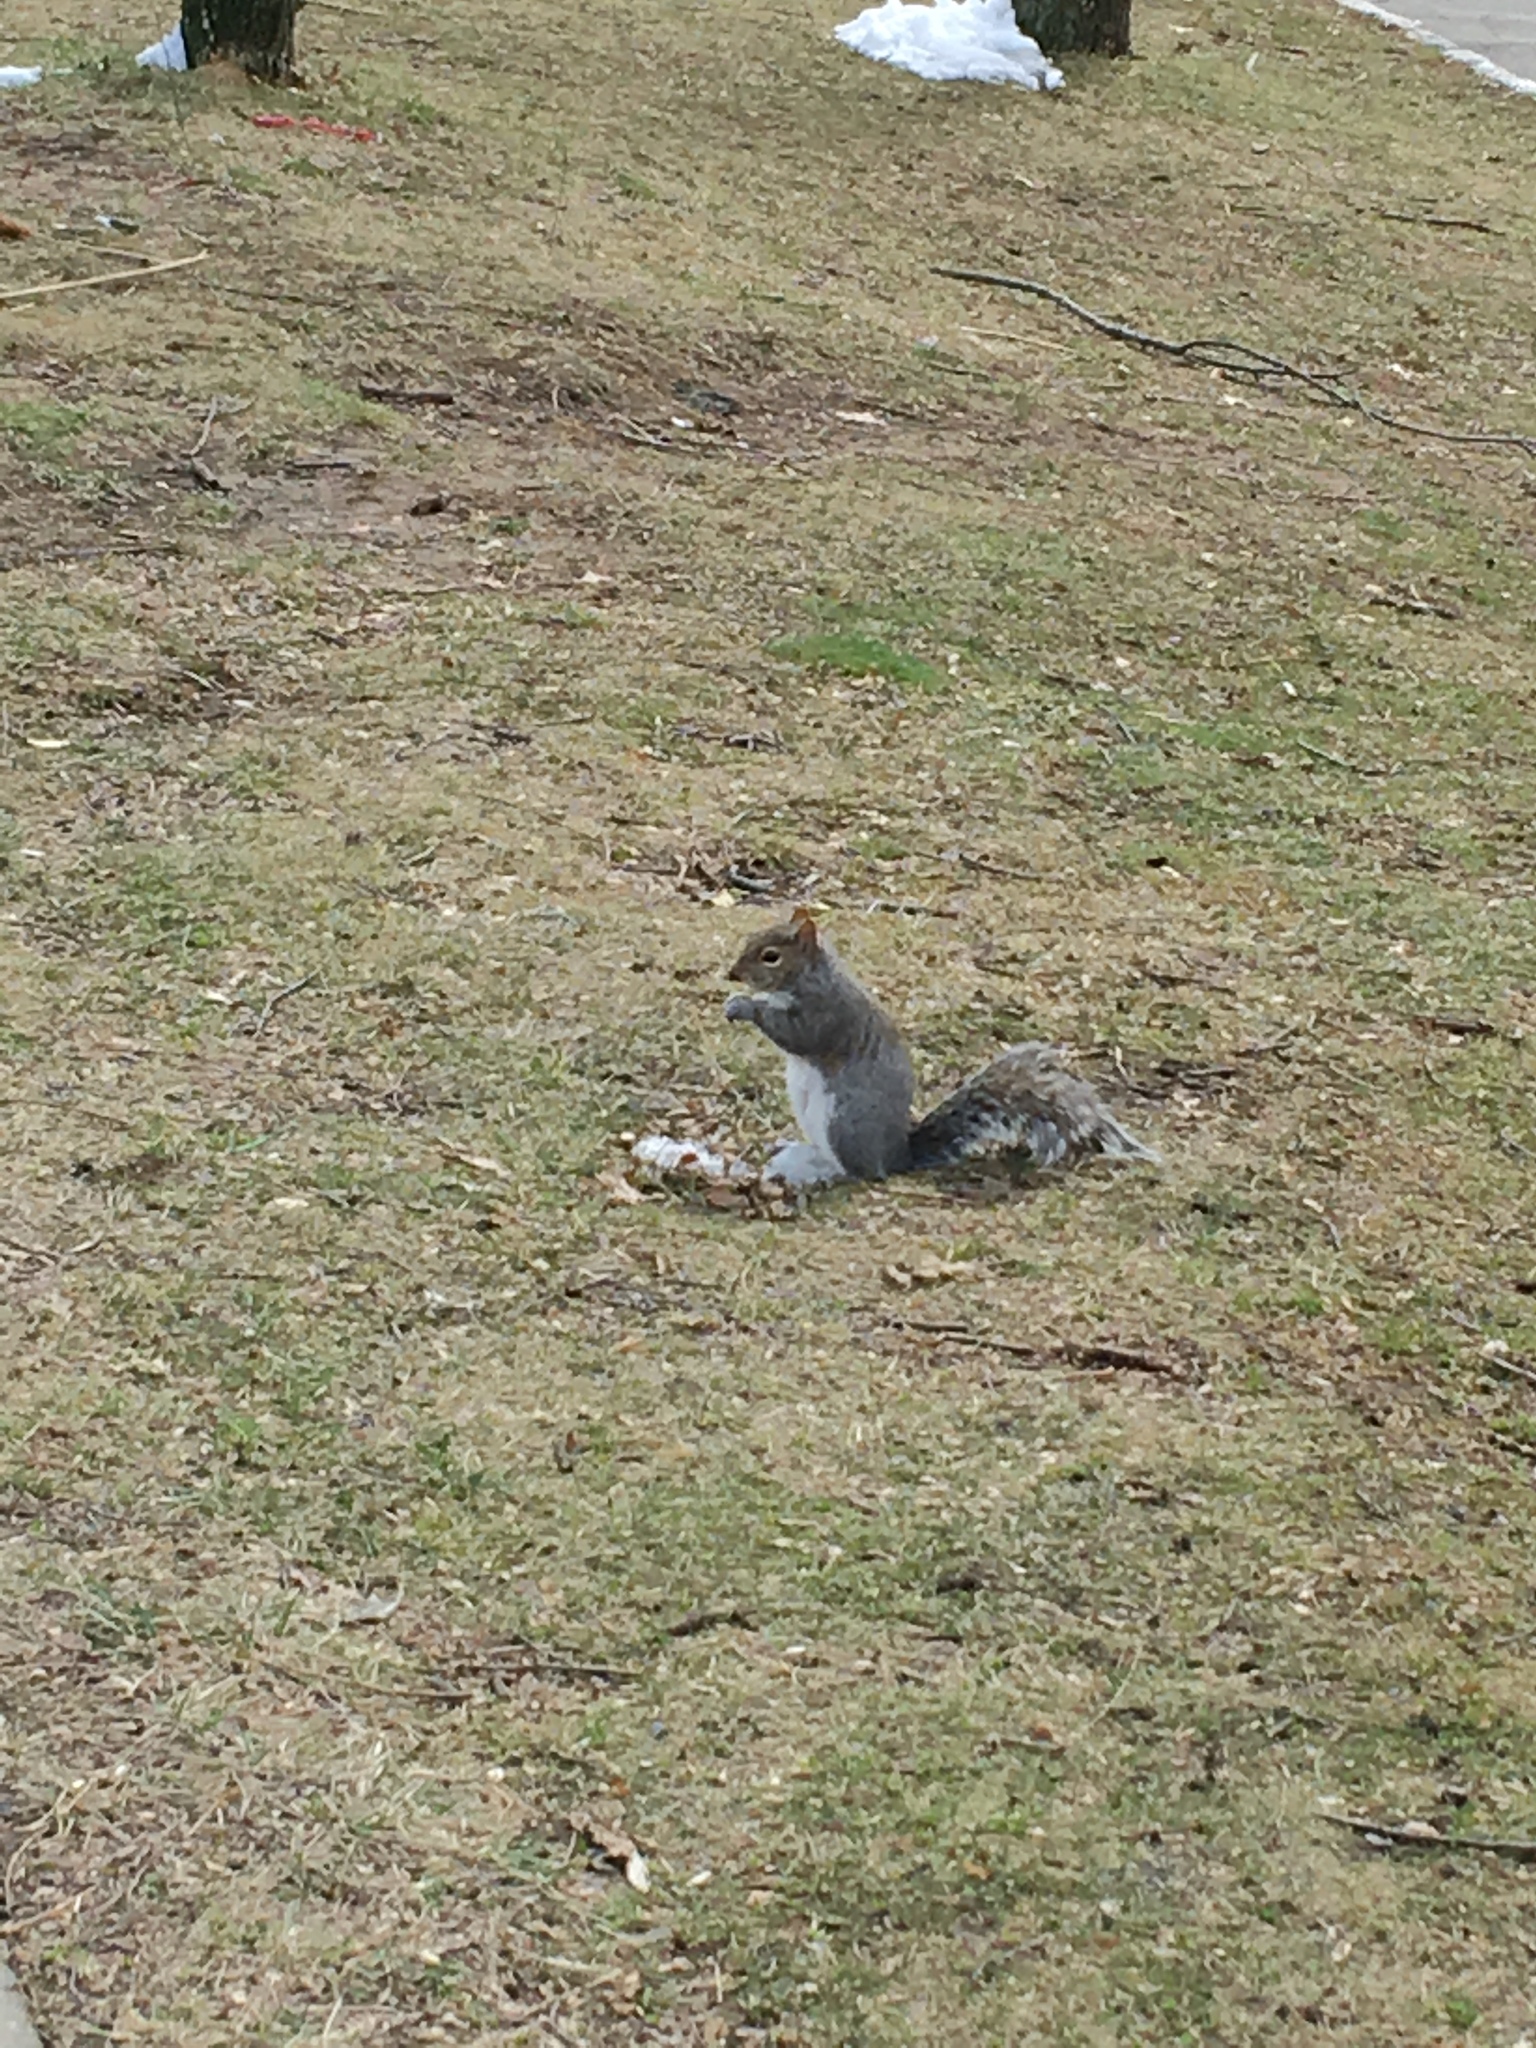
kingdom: Animalia
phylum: Chordata
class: Mammalia
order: Rodentia
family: Sciuridae
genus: Sciurus
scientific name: Sciurus carolinensis
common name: Eastern gray squirrel
